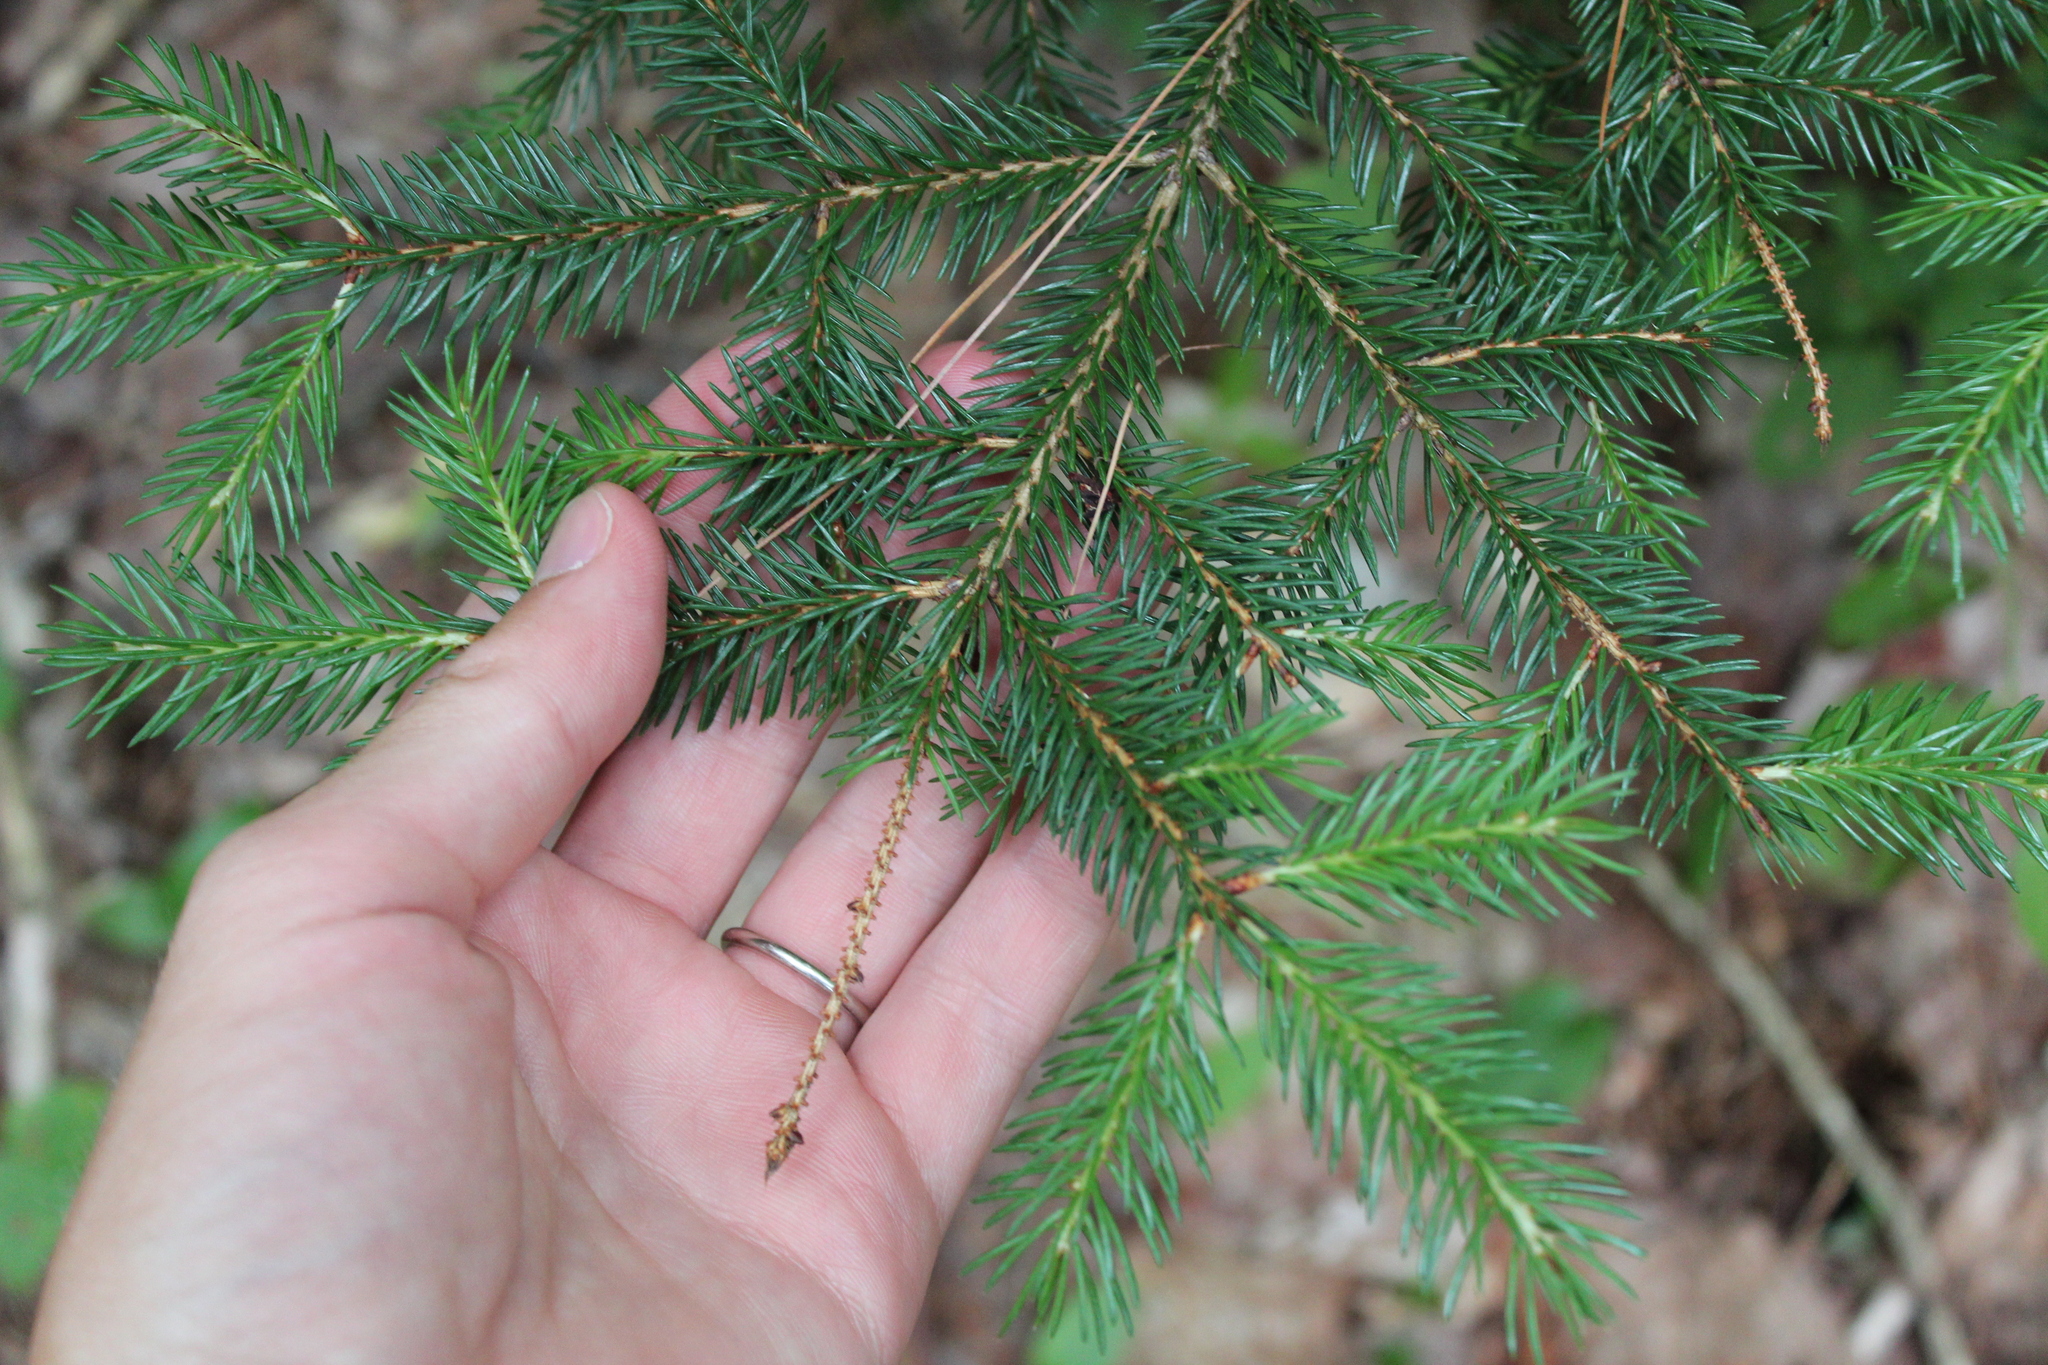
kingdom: Plantae
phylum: Tracheophyta
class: Pinopsida
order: Pinales
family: Pinaceae
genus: Picea
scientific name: Picea rubens
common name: Red spruce
